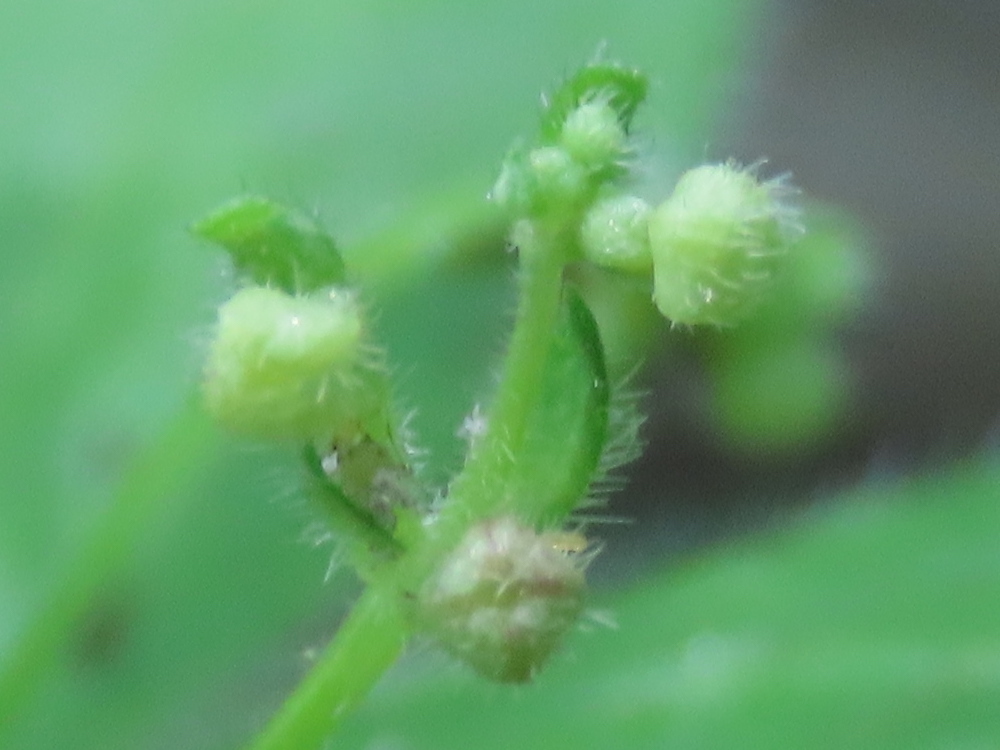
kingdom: Plantae
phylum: Tracheophyta
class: Magnoliopsida
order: Gentianales
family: Rubiaceae
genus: Galium
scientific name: Galium circaezans
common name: Forest bedstraw
